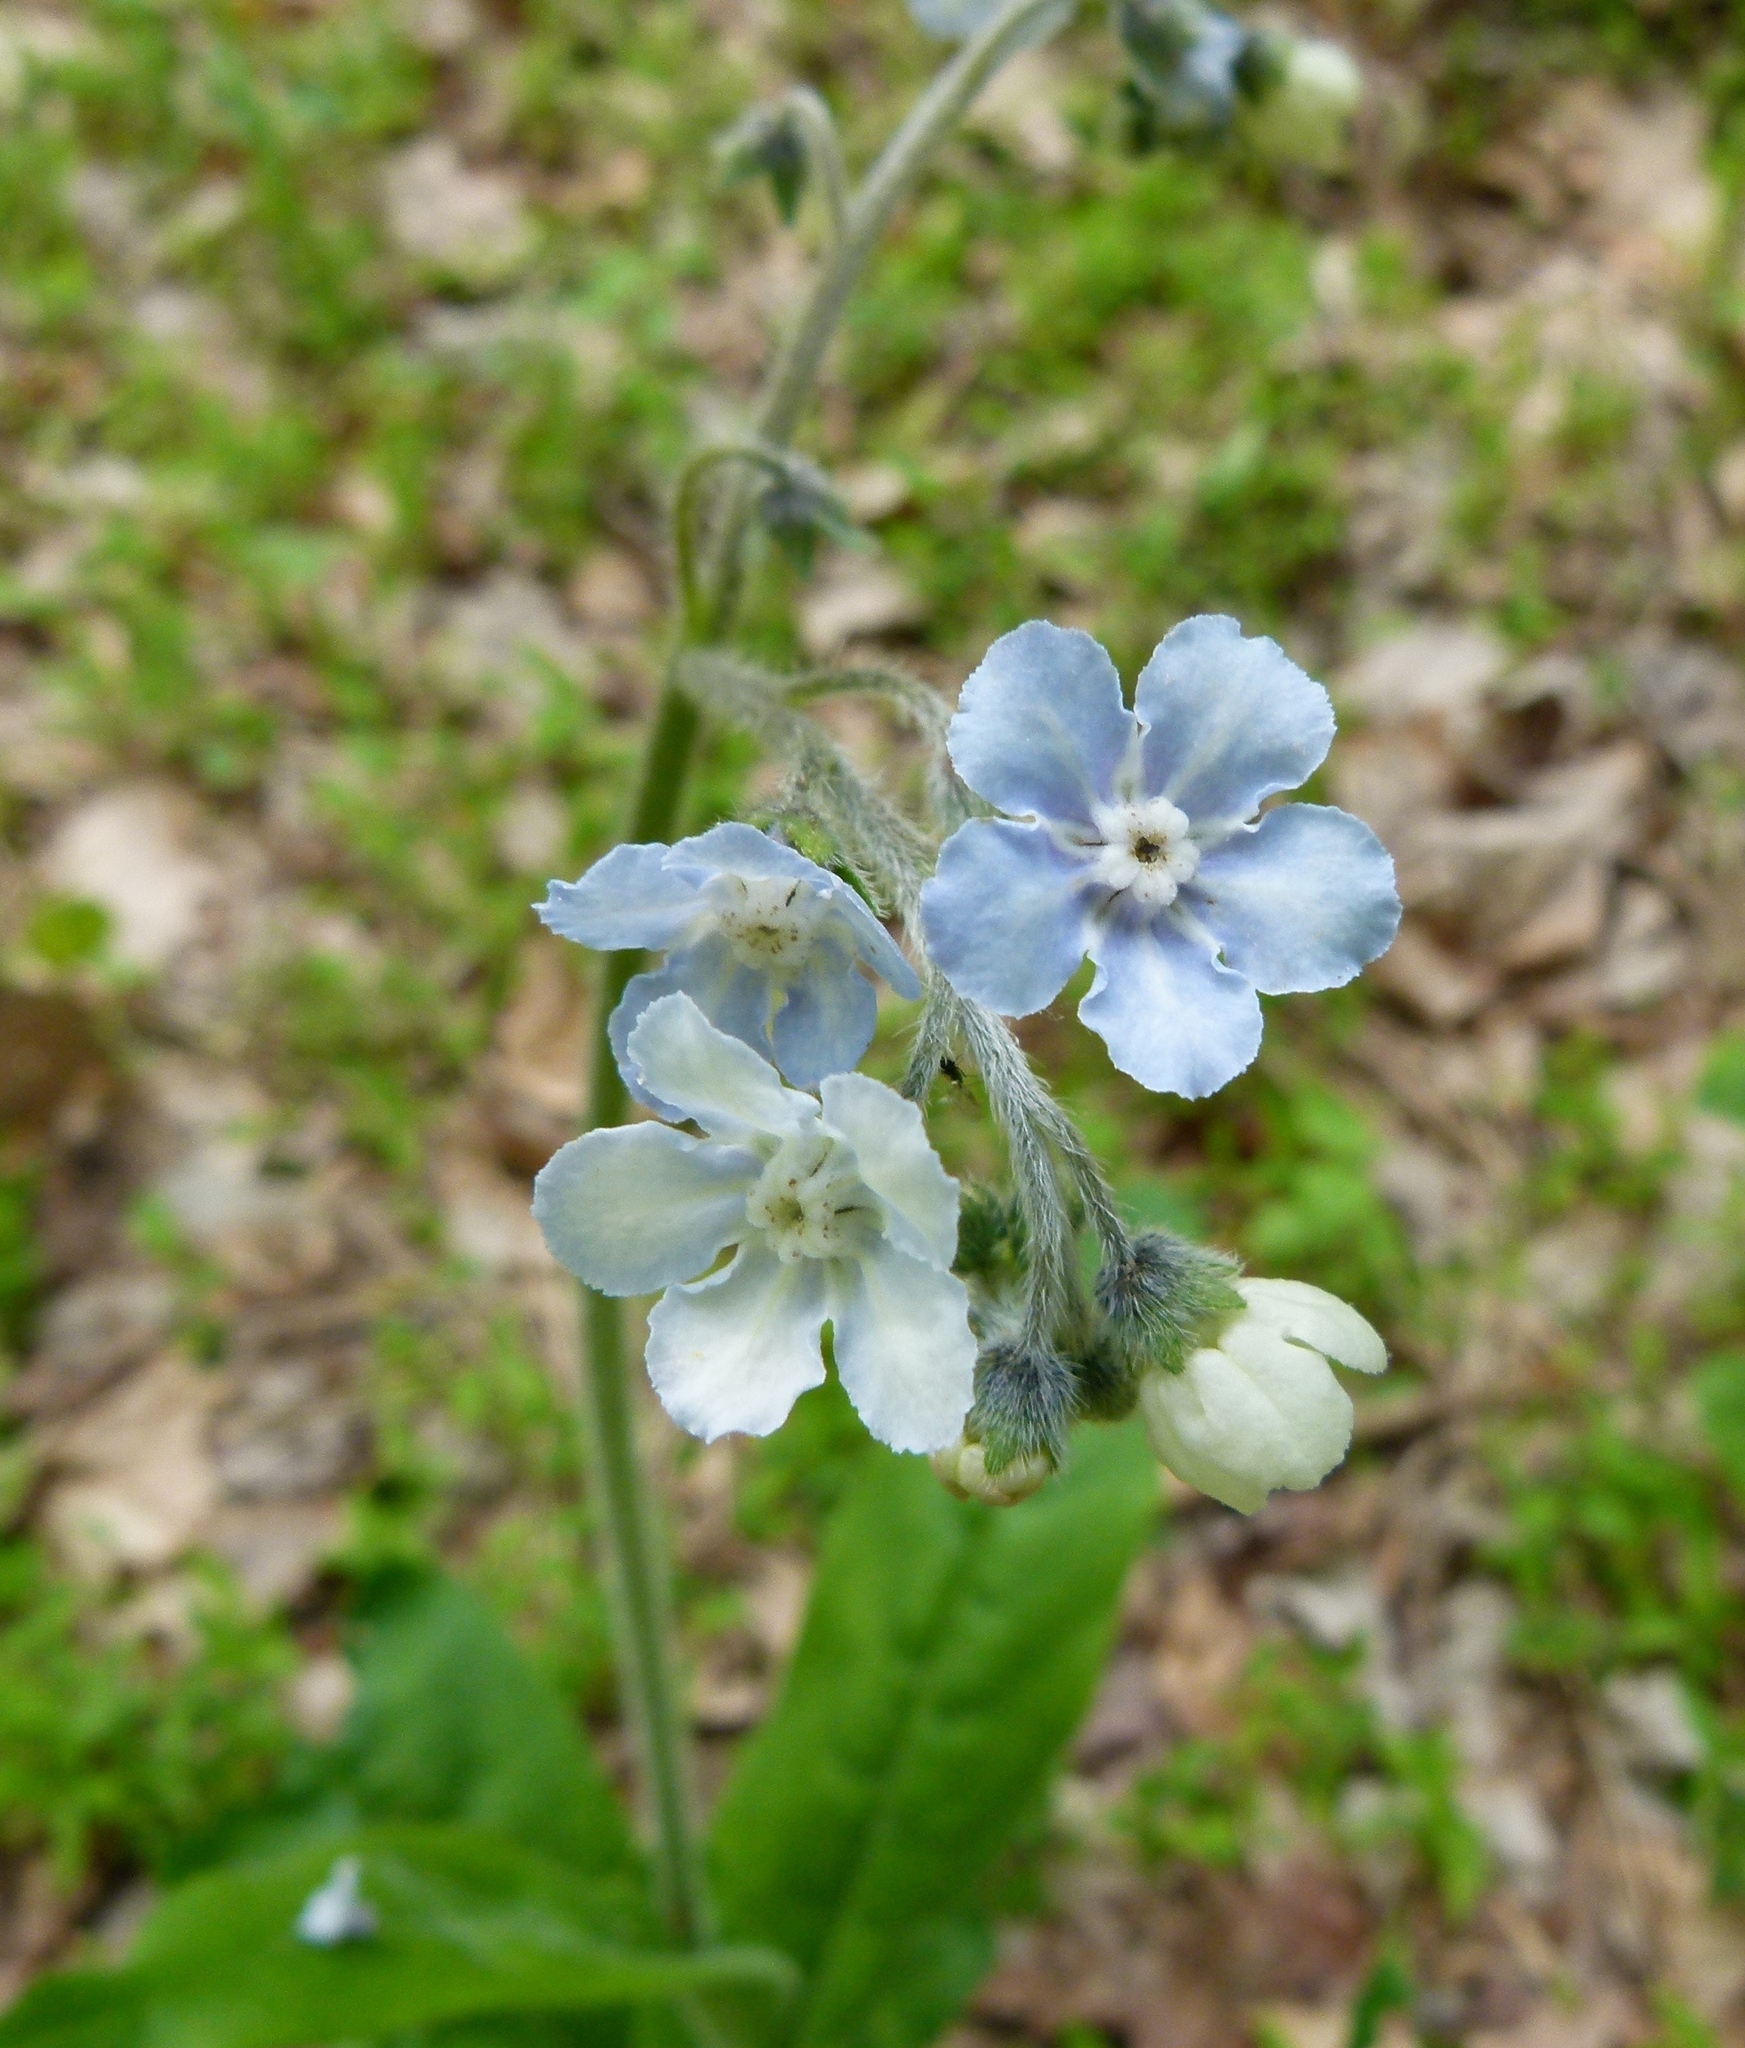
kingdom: Plantae
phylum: Tracheophyta
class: Magnoliopsida
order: Boraginales
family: Boraginaceae
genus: Andersonglossum
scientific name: Andersonglossum virginianum
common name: Wild comfrey
